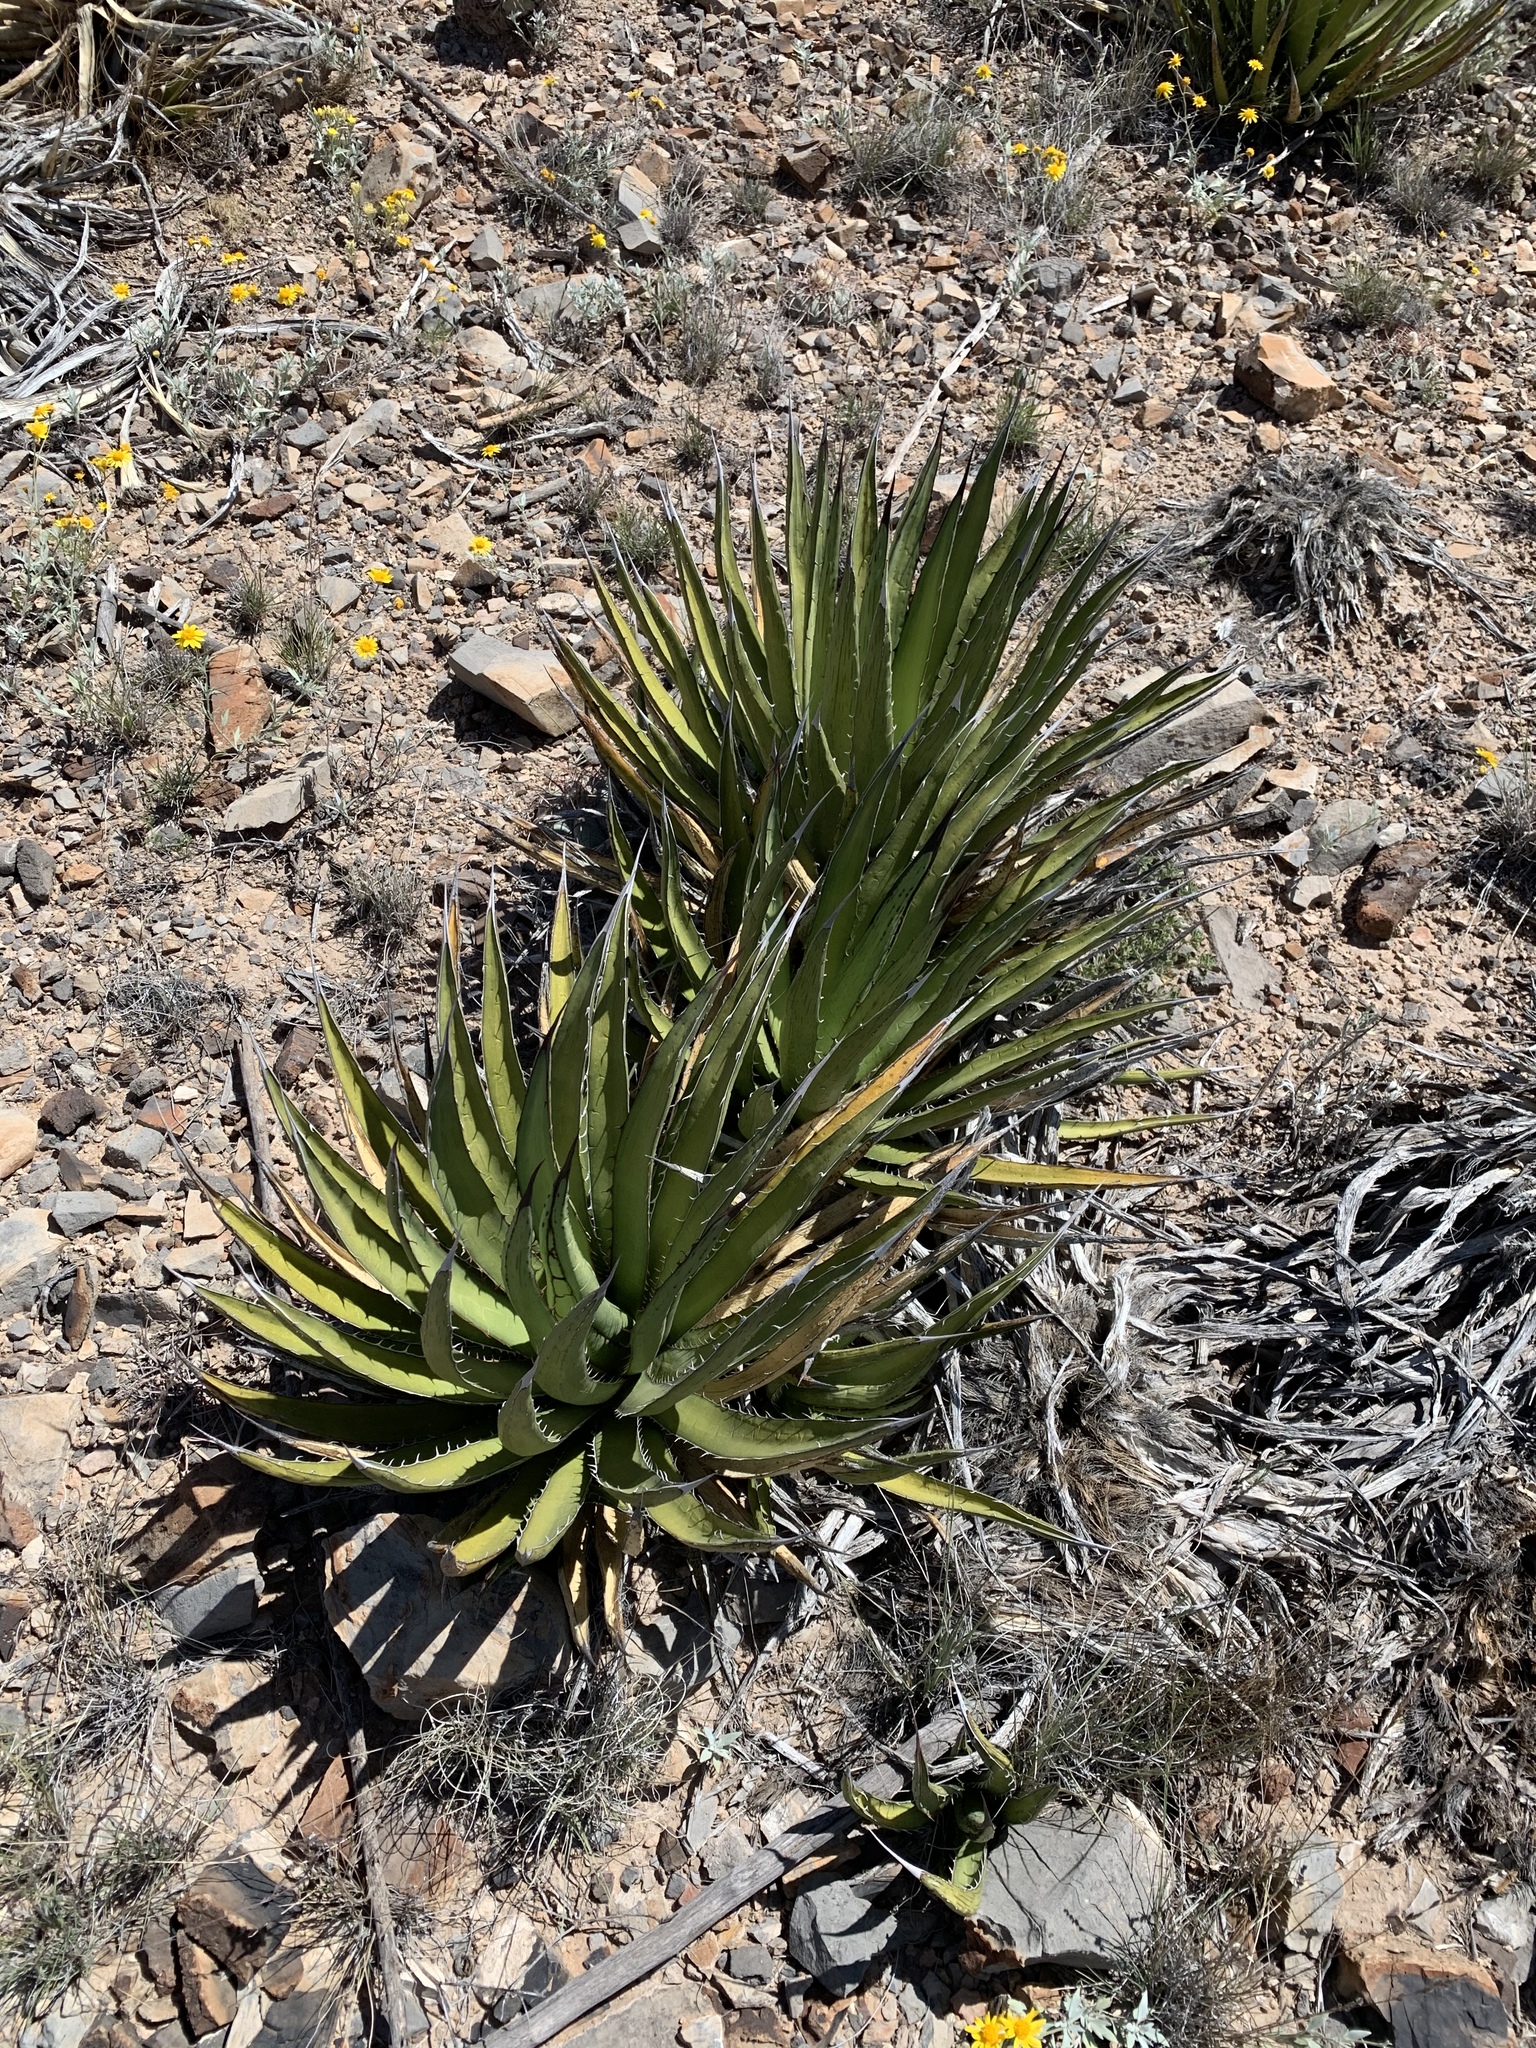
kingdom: Plantae
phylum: Tracheophyta
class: Liliopsida
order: Asparagales
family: Asparagaceae
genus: Agave
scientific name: Agave lechuguilla
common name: Lecheguilla agave
